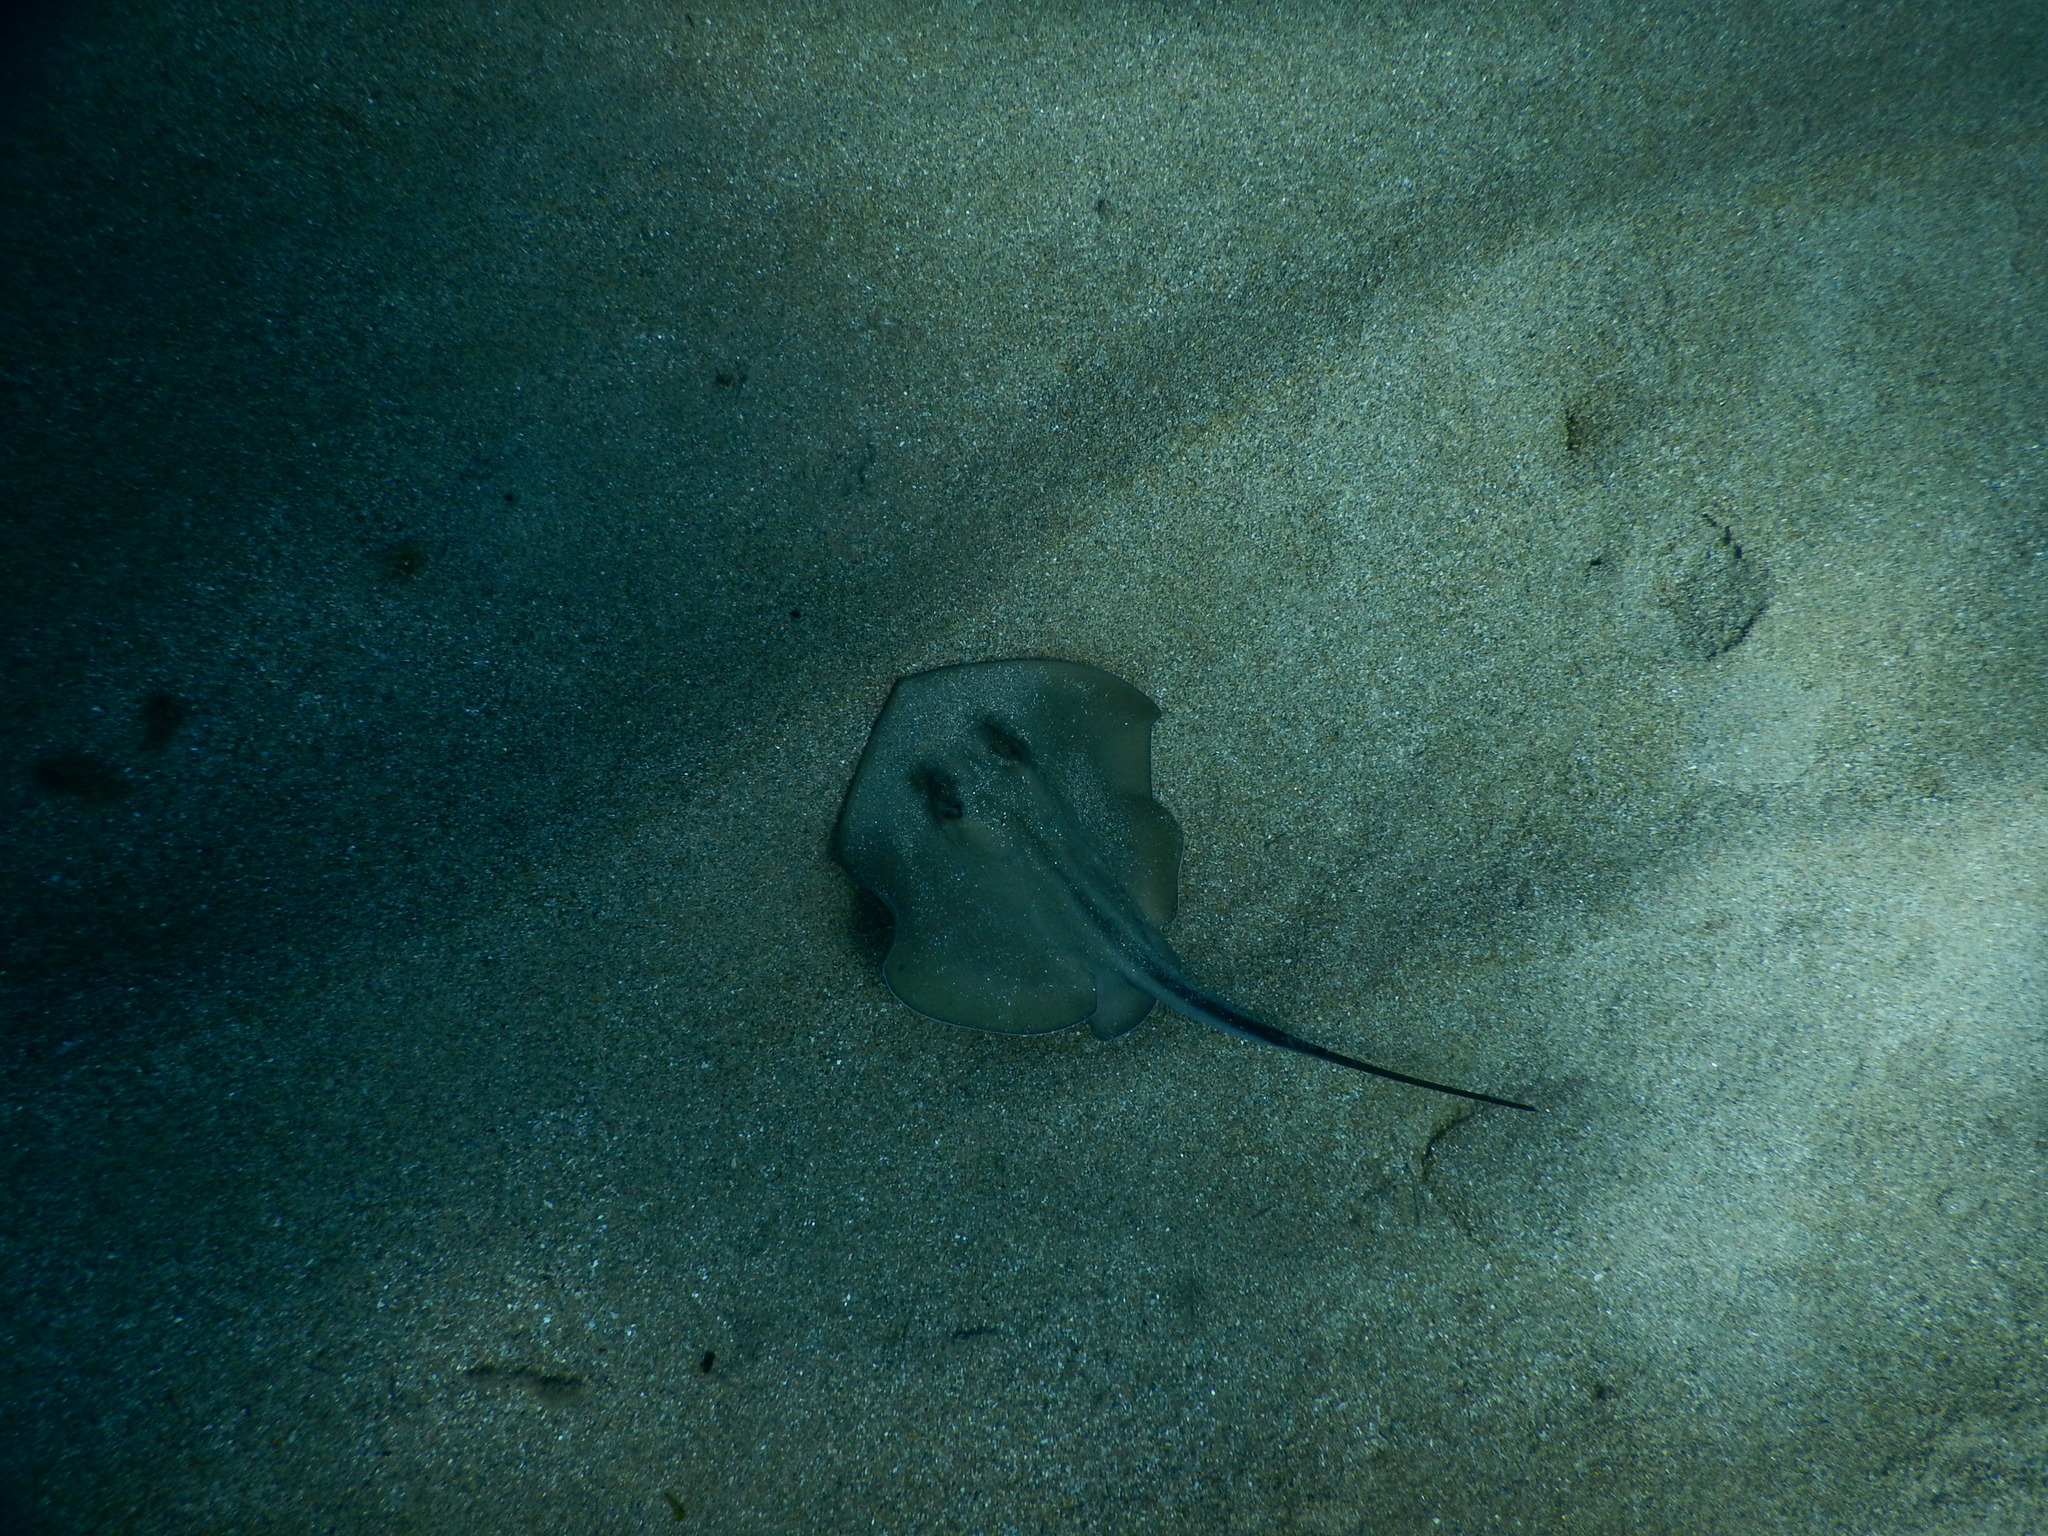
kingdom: Animalia
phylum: Chordata
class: Elasmobranchii
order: Myliobatiformes
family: Dasyatidae
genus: Dasyatis
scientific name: Dasyatis pastinaca
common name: Common stingray
